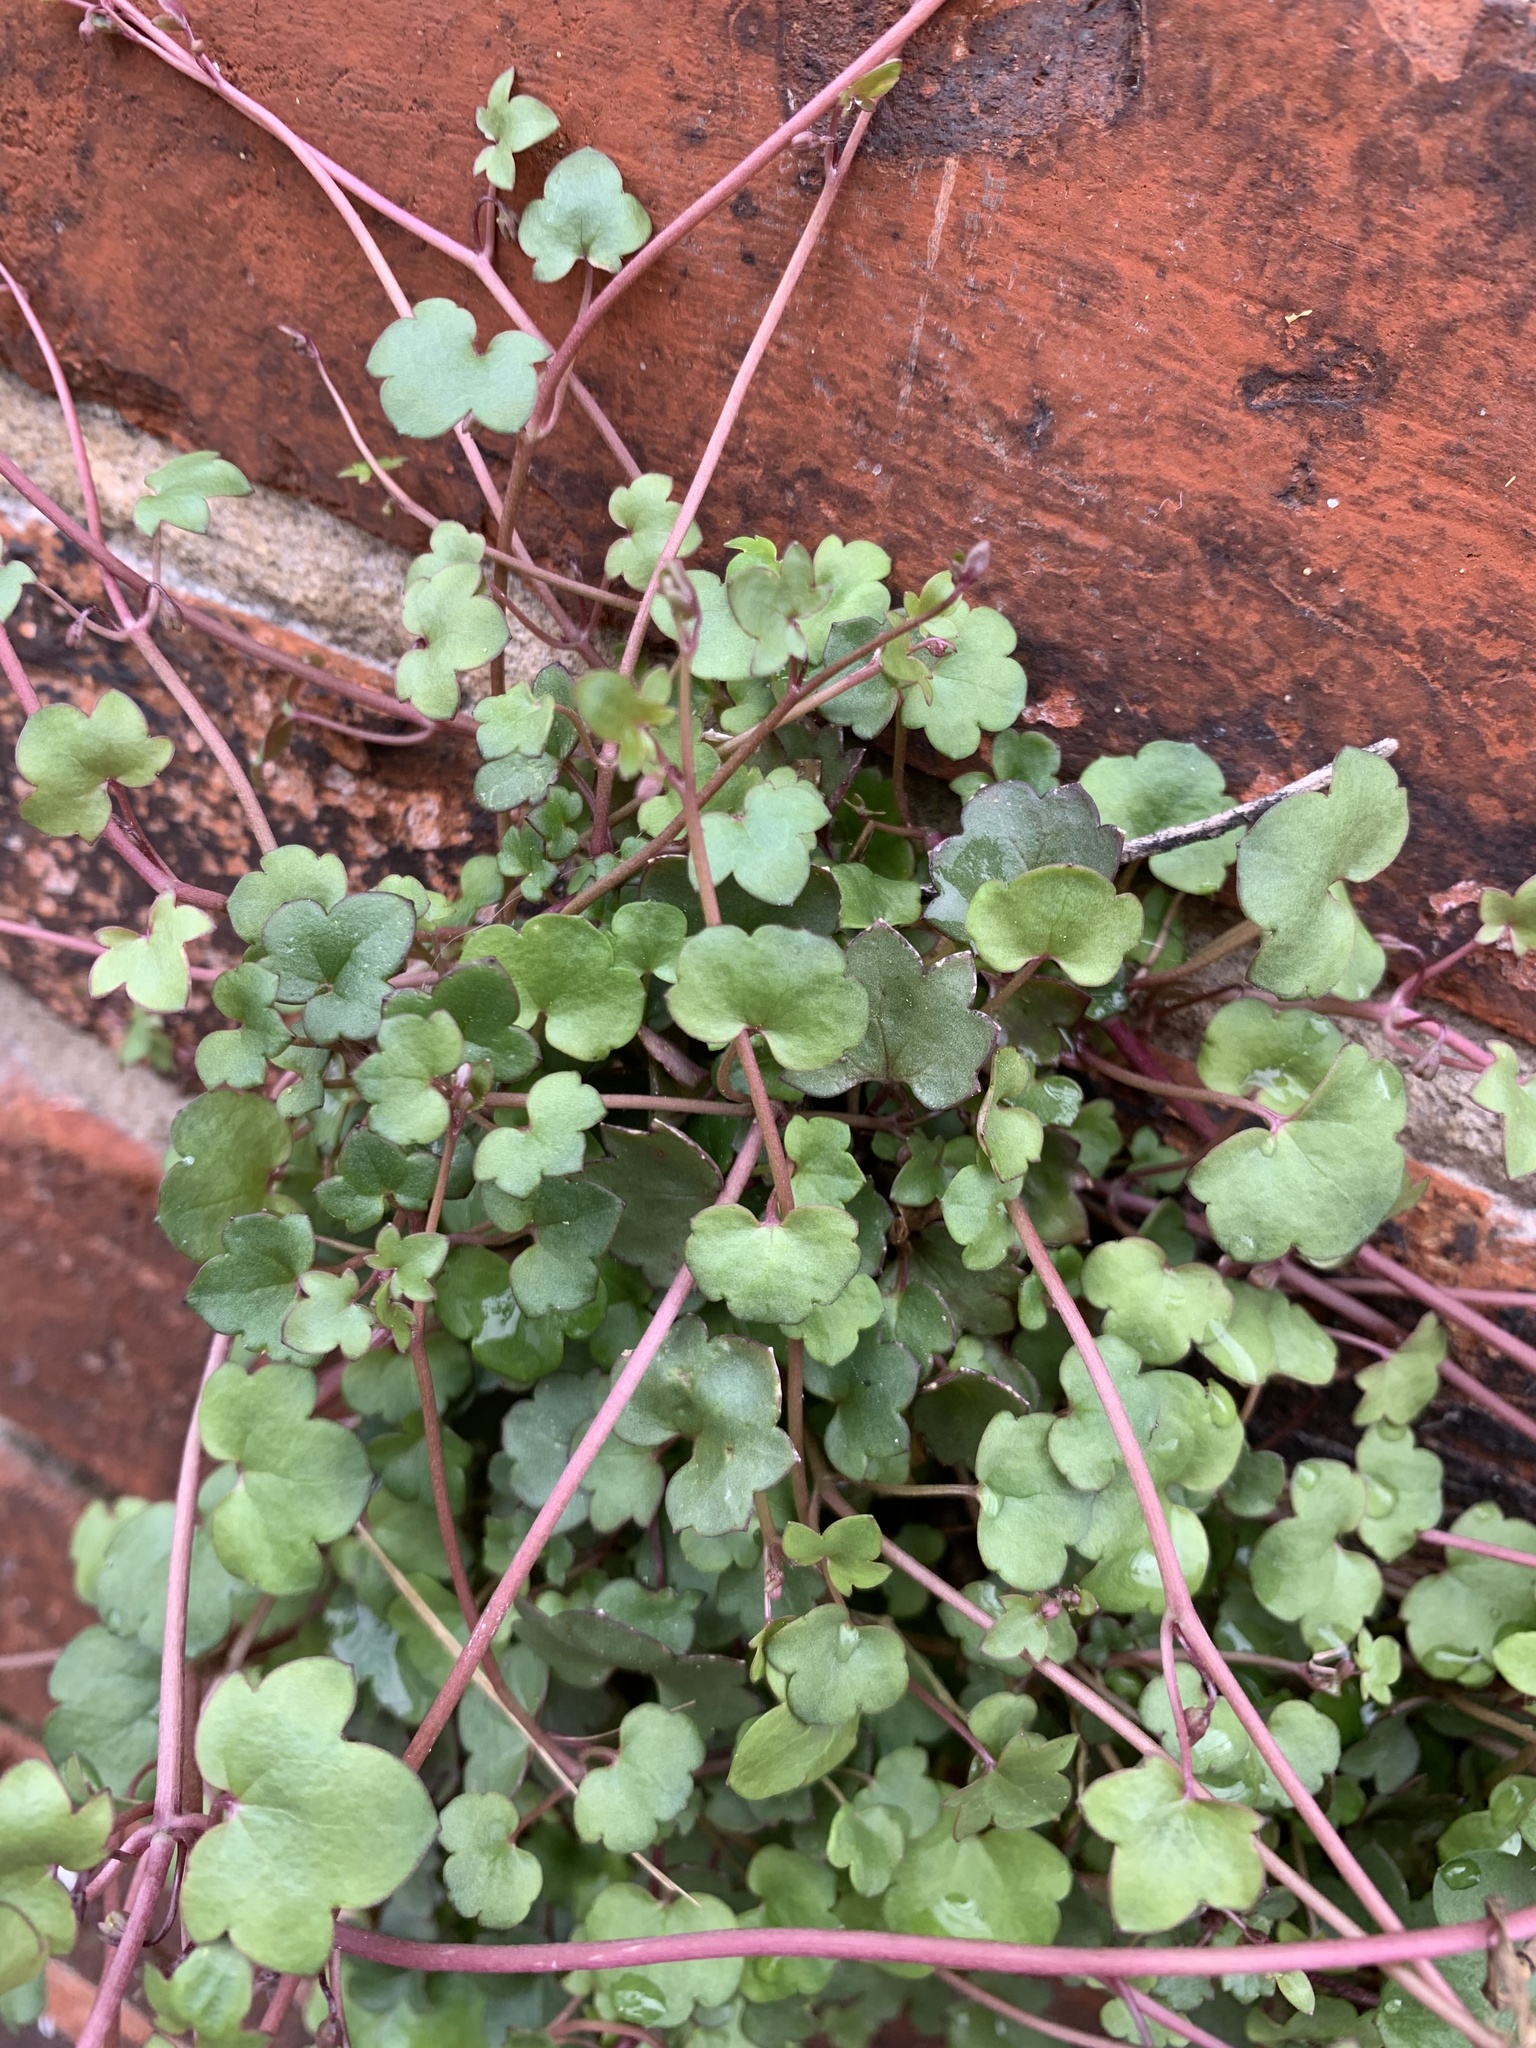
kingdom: Plantae
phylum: Tracheophyta
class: Magnoliopsida
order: Lamiales
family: Plantaginaceae
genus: Cymbalaria
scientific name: Cymbalaria muralis
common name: Ivy-leaved toadflax
